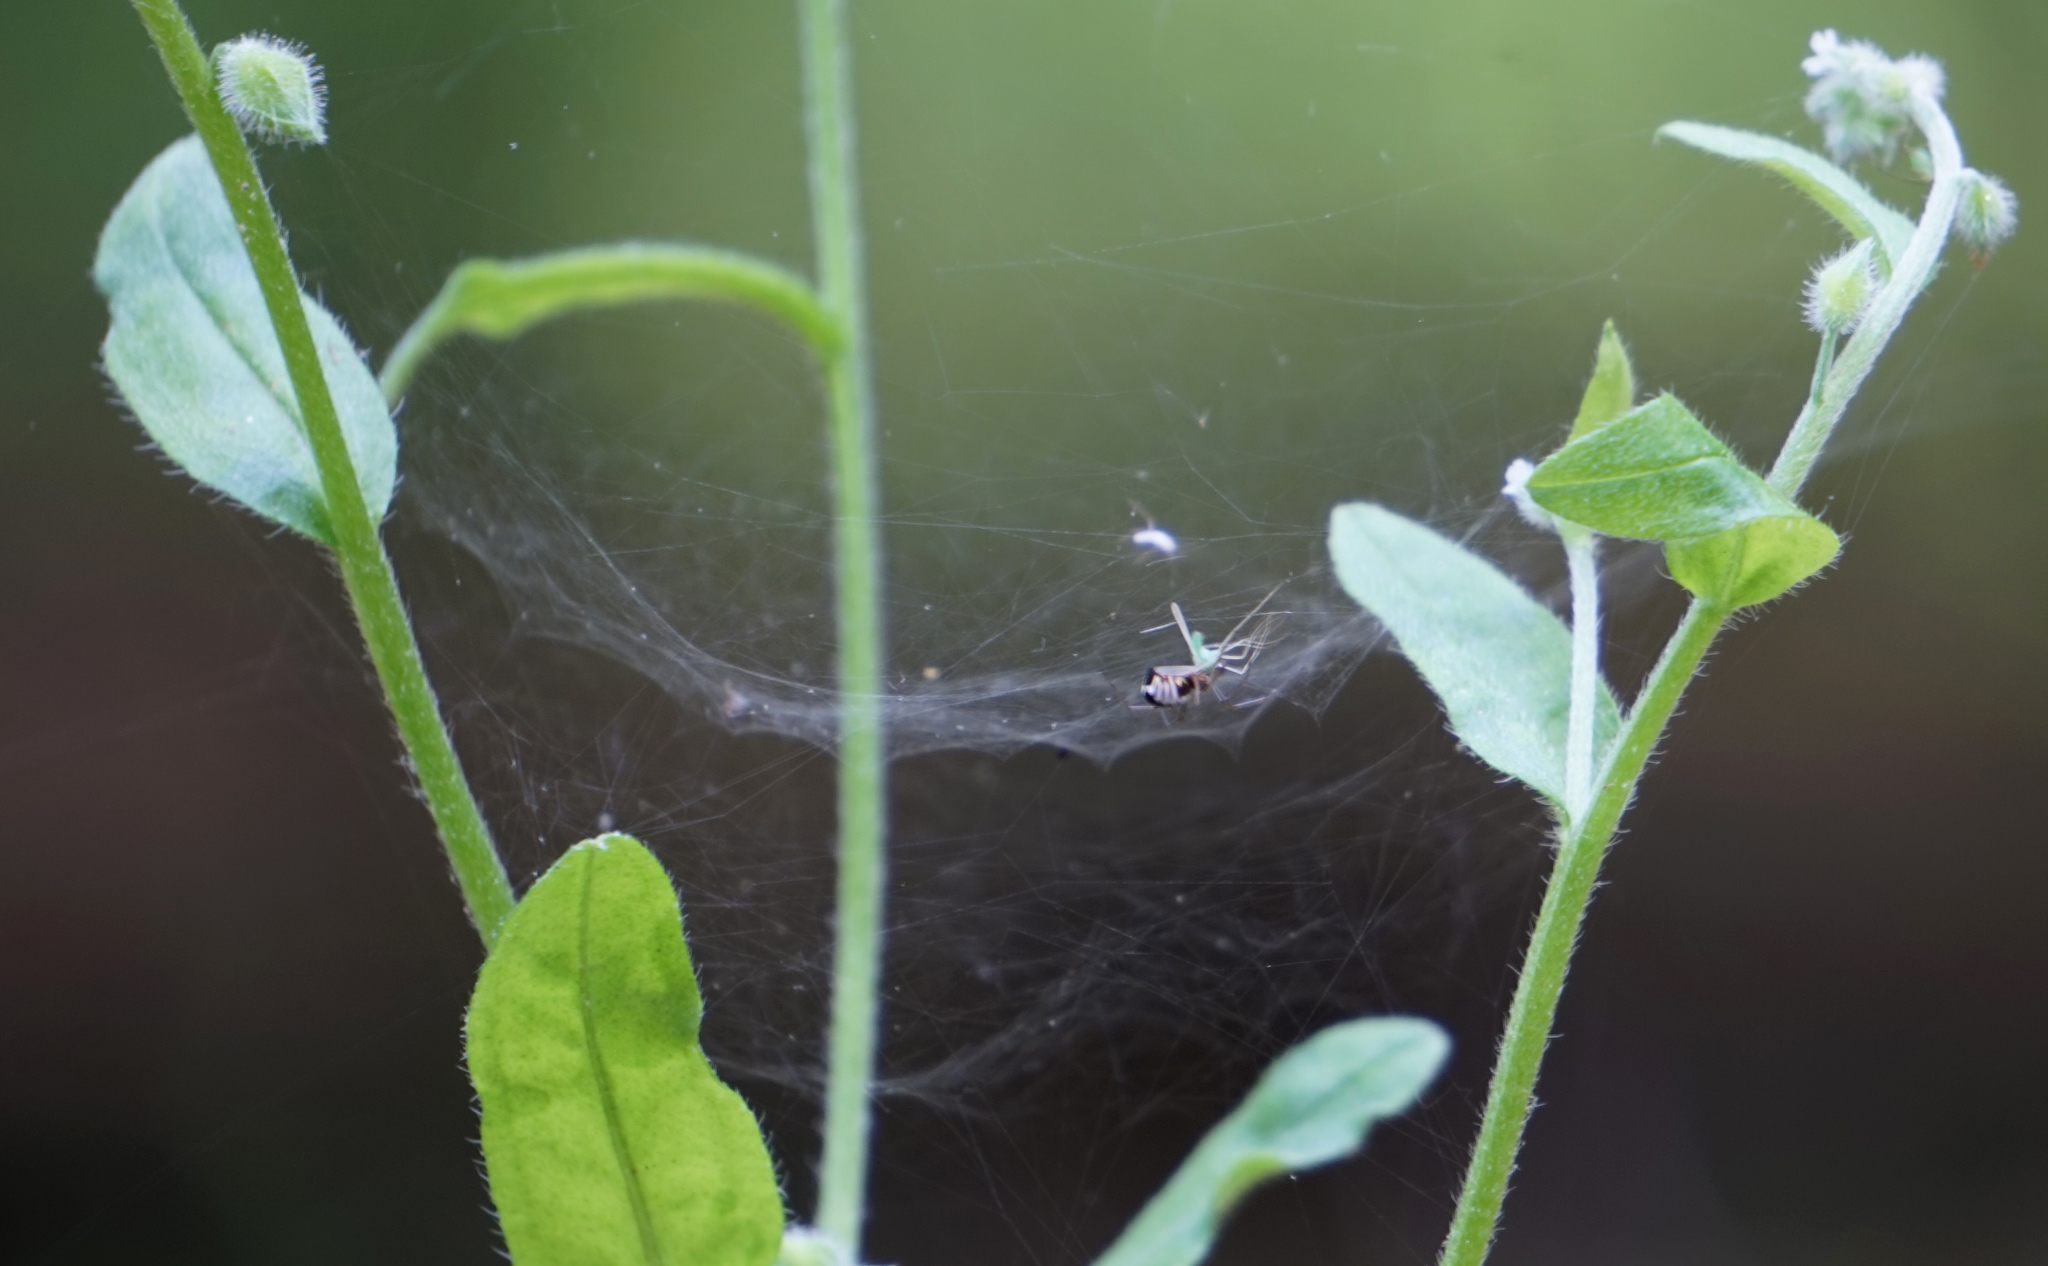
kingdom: Animalia
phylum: Arthropoda
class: Arachnida
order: Araneae
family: Linyphiidae
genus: Frontinella
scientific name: Frontinella pyramitela
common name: Bowl-and-doily spider
